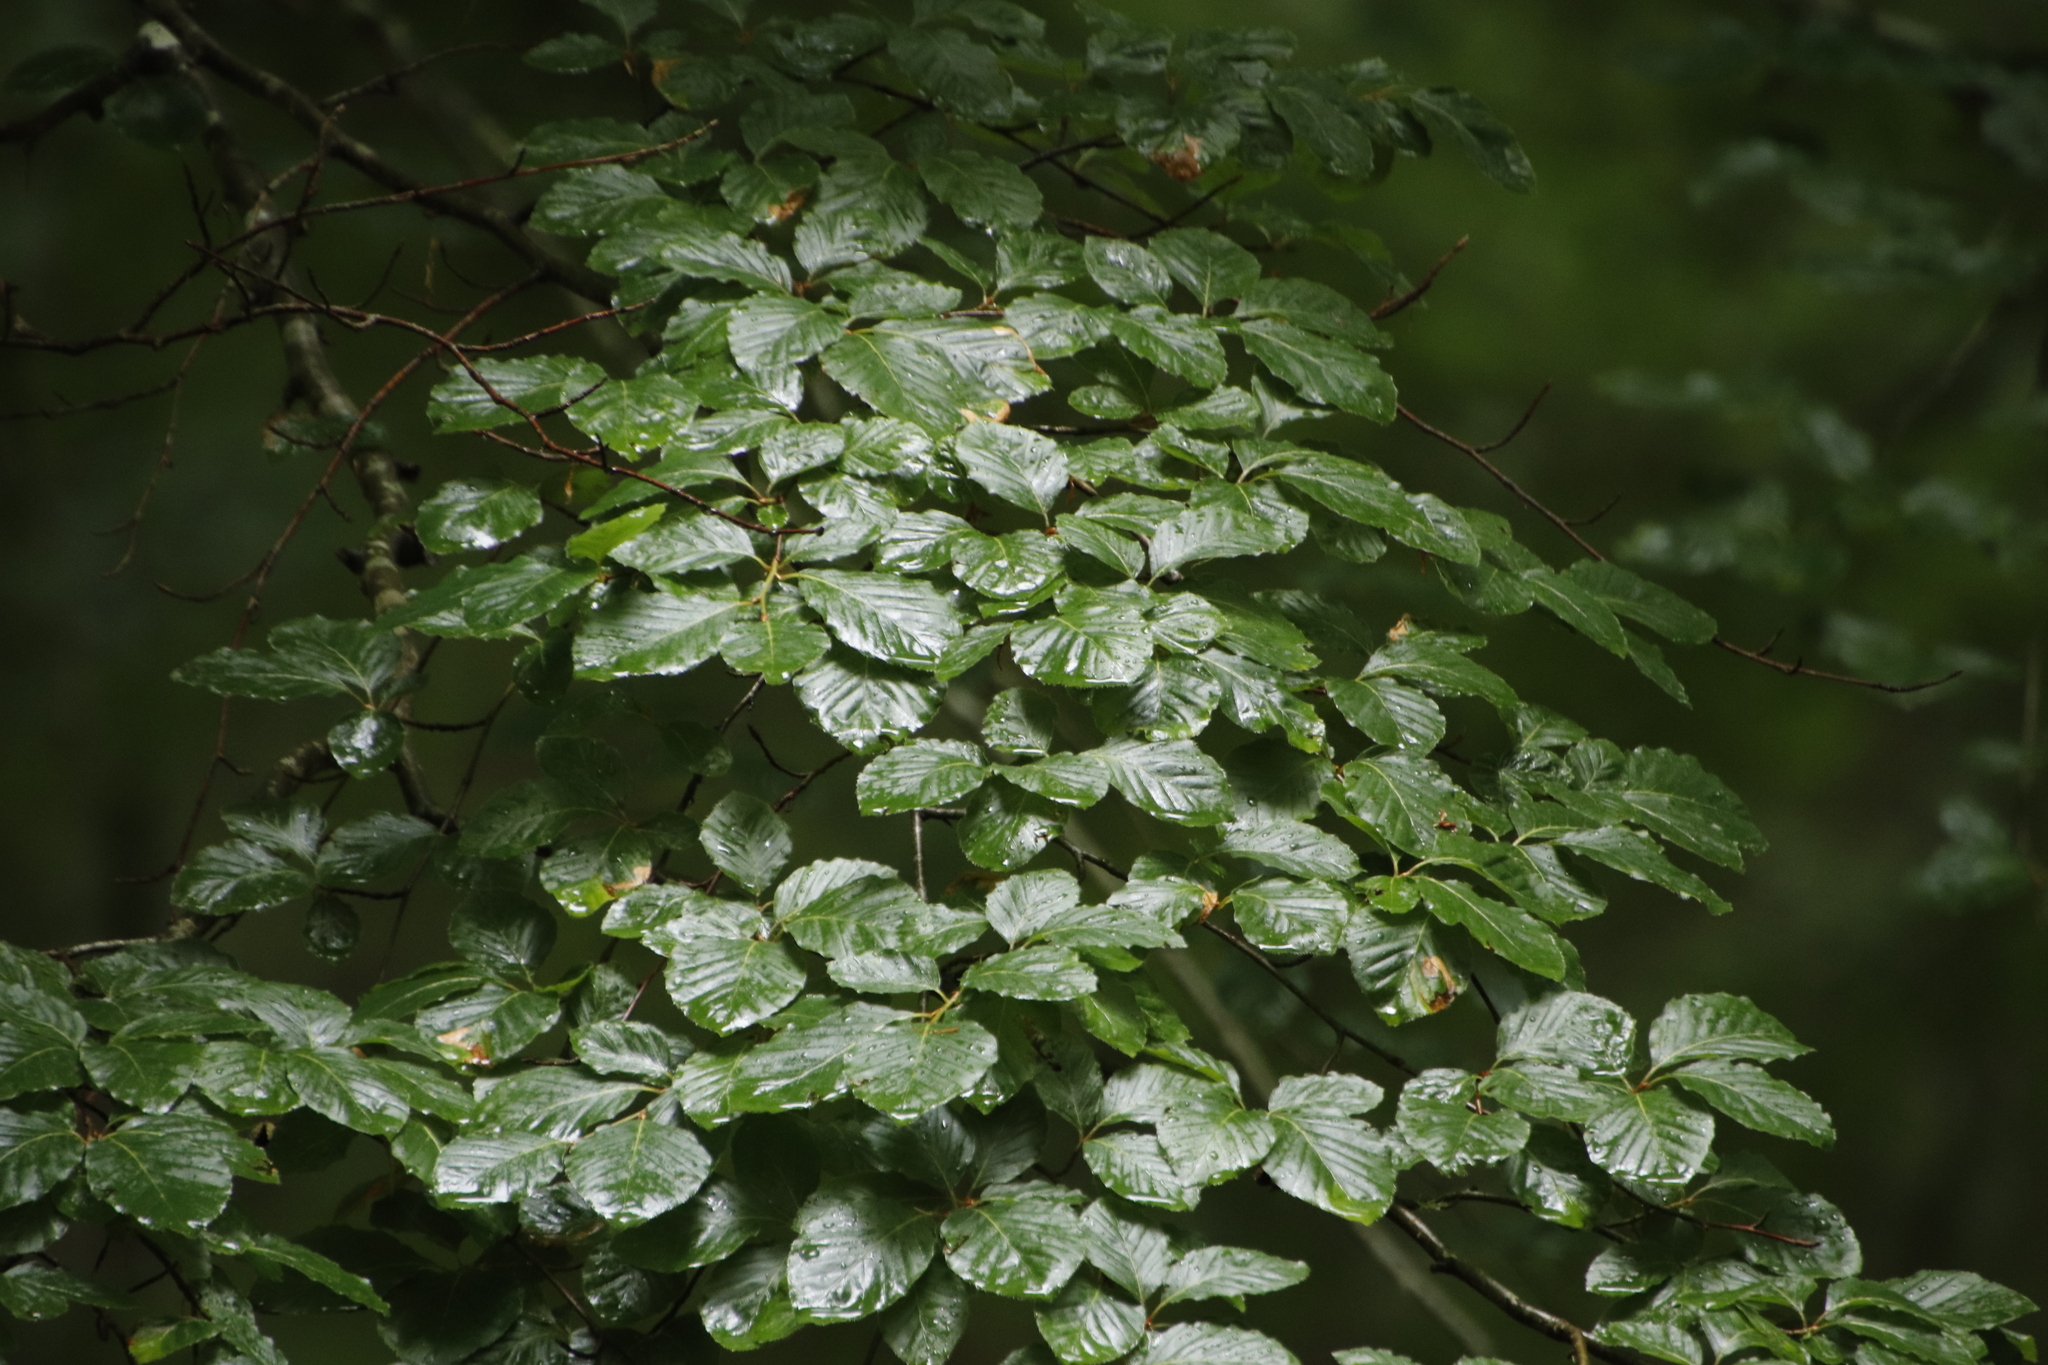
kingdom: Plantae
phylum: Tracheophyta
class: Magnoliopsida
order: Fagales
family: Fagaceae
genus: Fagus
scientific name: Fagus sylvatica
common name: Beech
